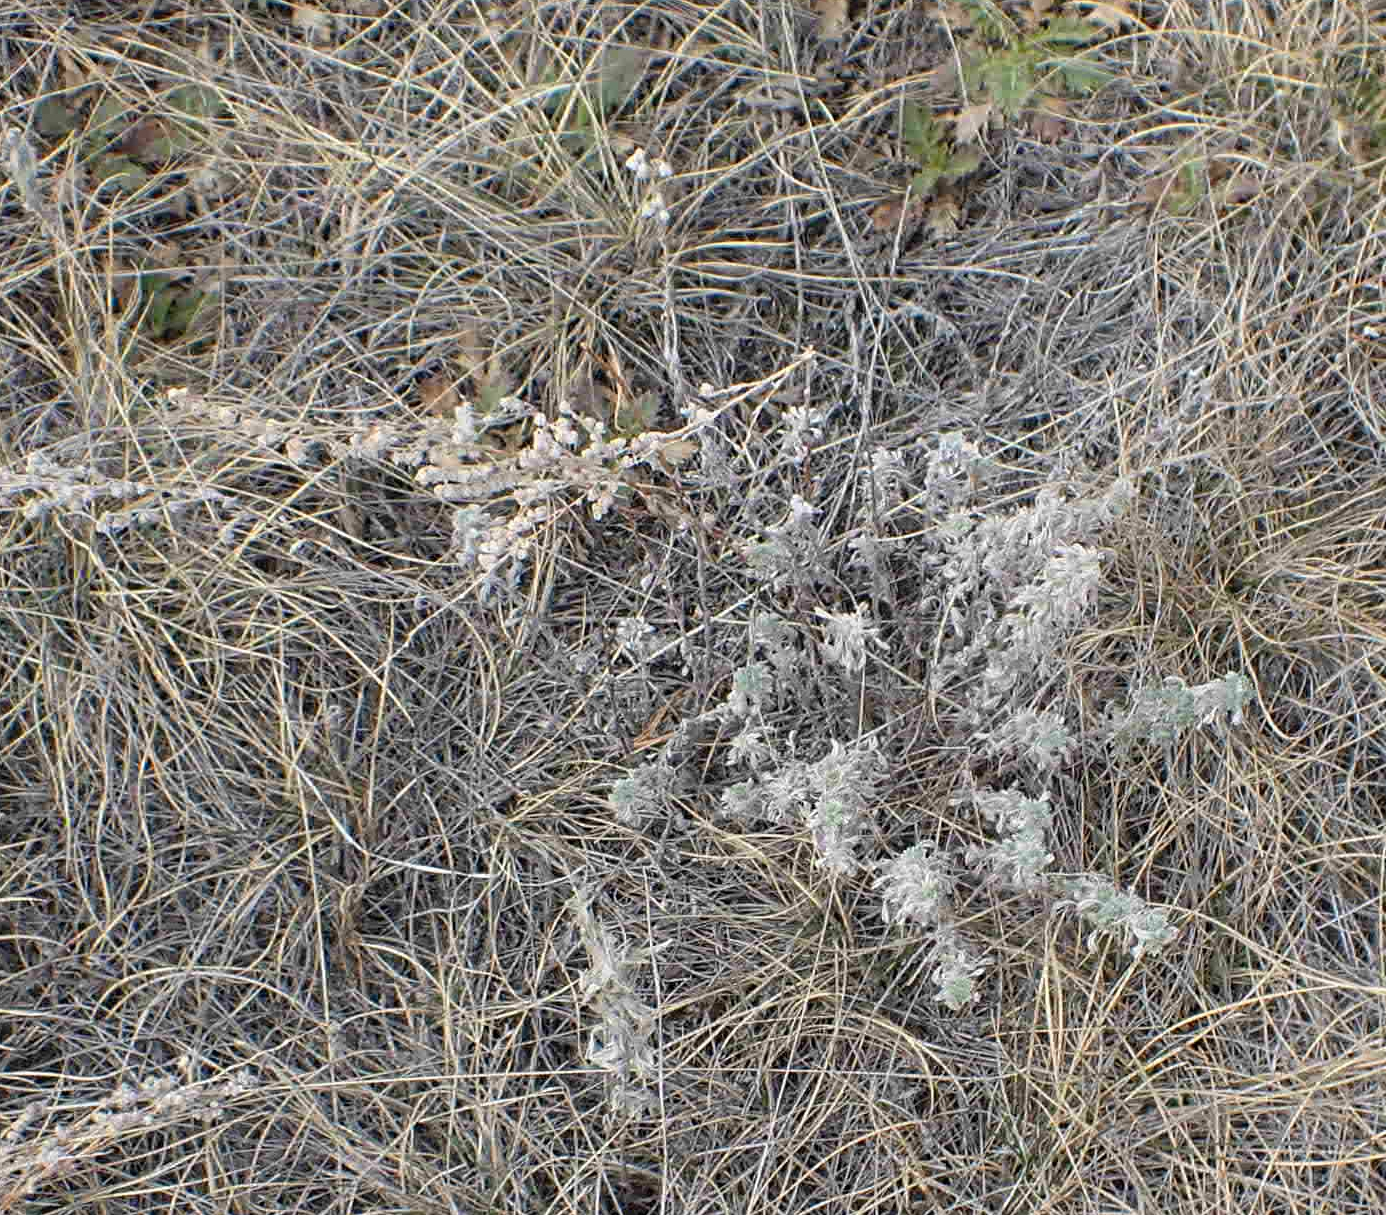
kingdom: Plantae
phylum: Tracheophyta
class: Magnoliopsida
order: Asterales
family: Asteraceae
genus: Artemisia
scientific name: Artemisia frigida
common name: Prairie sagewort
